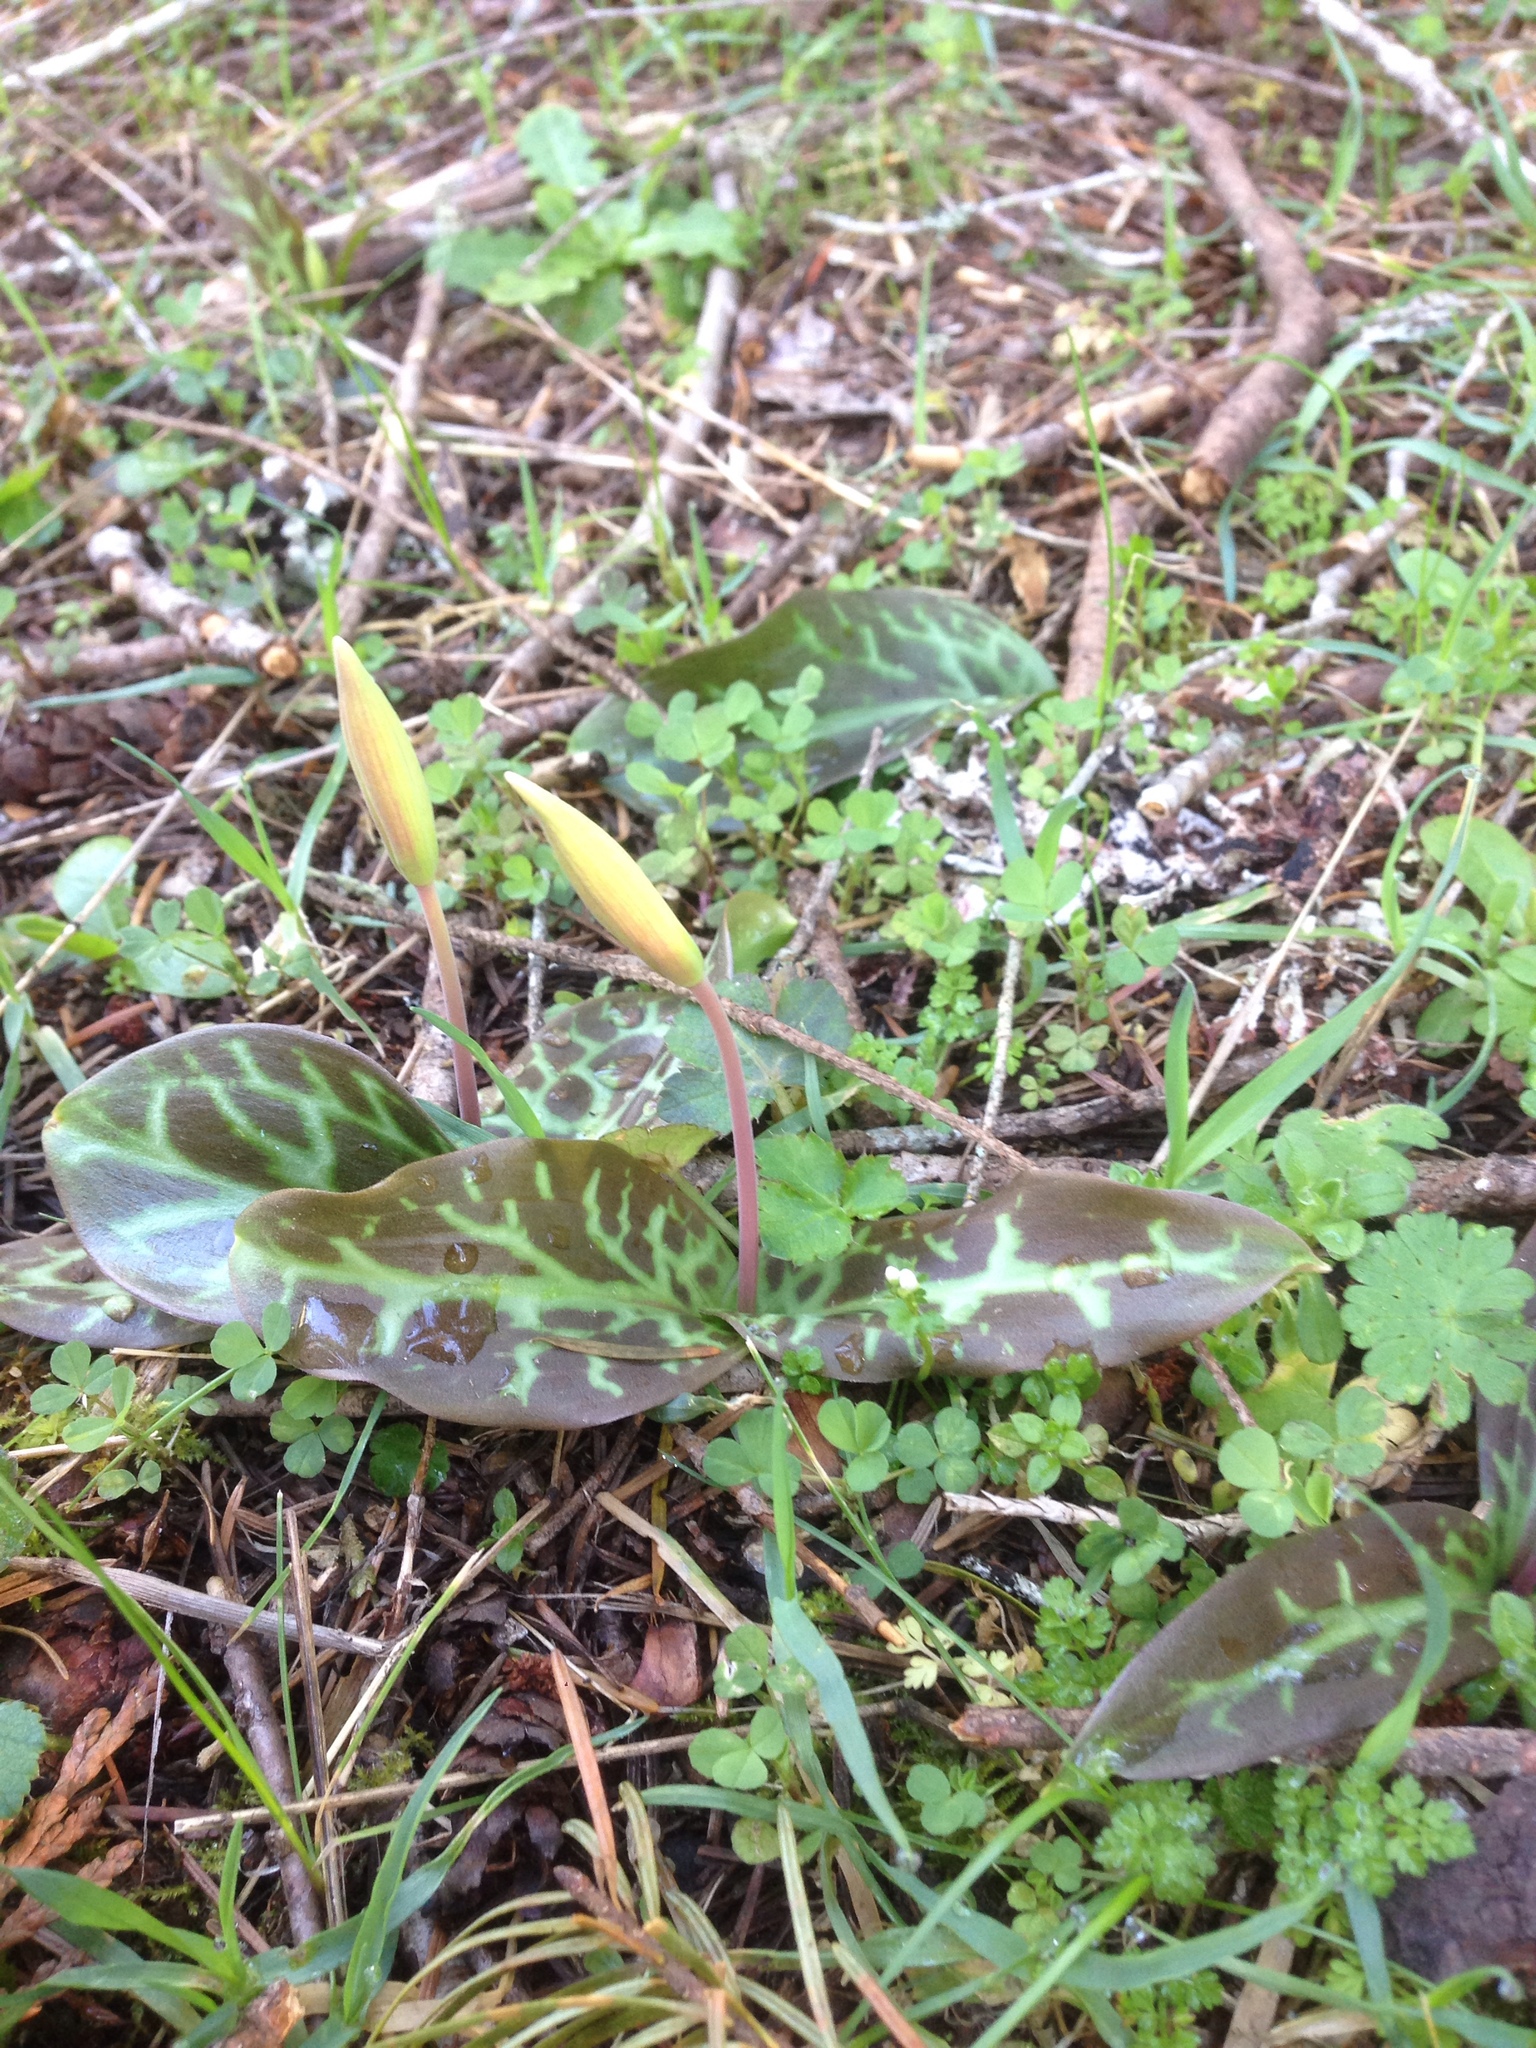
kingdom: Plantae
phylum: Tracheophyta
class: Liliopsida
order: Liliales
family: Liliaceae
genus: Erythronium
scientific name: Erythronium oregonum
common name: Giant adder's-tongue
